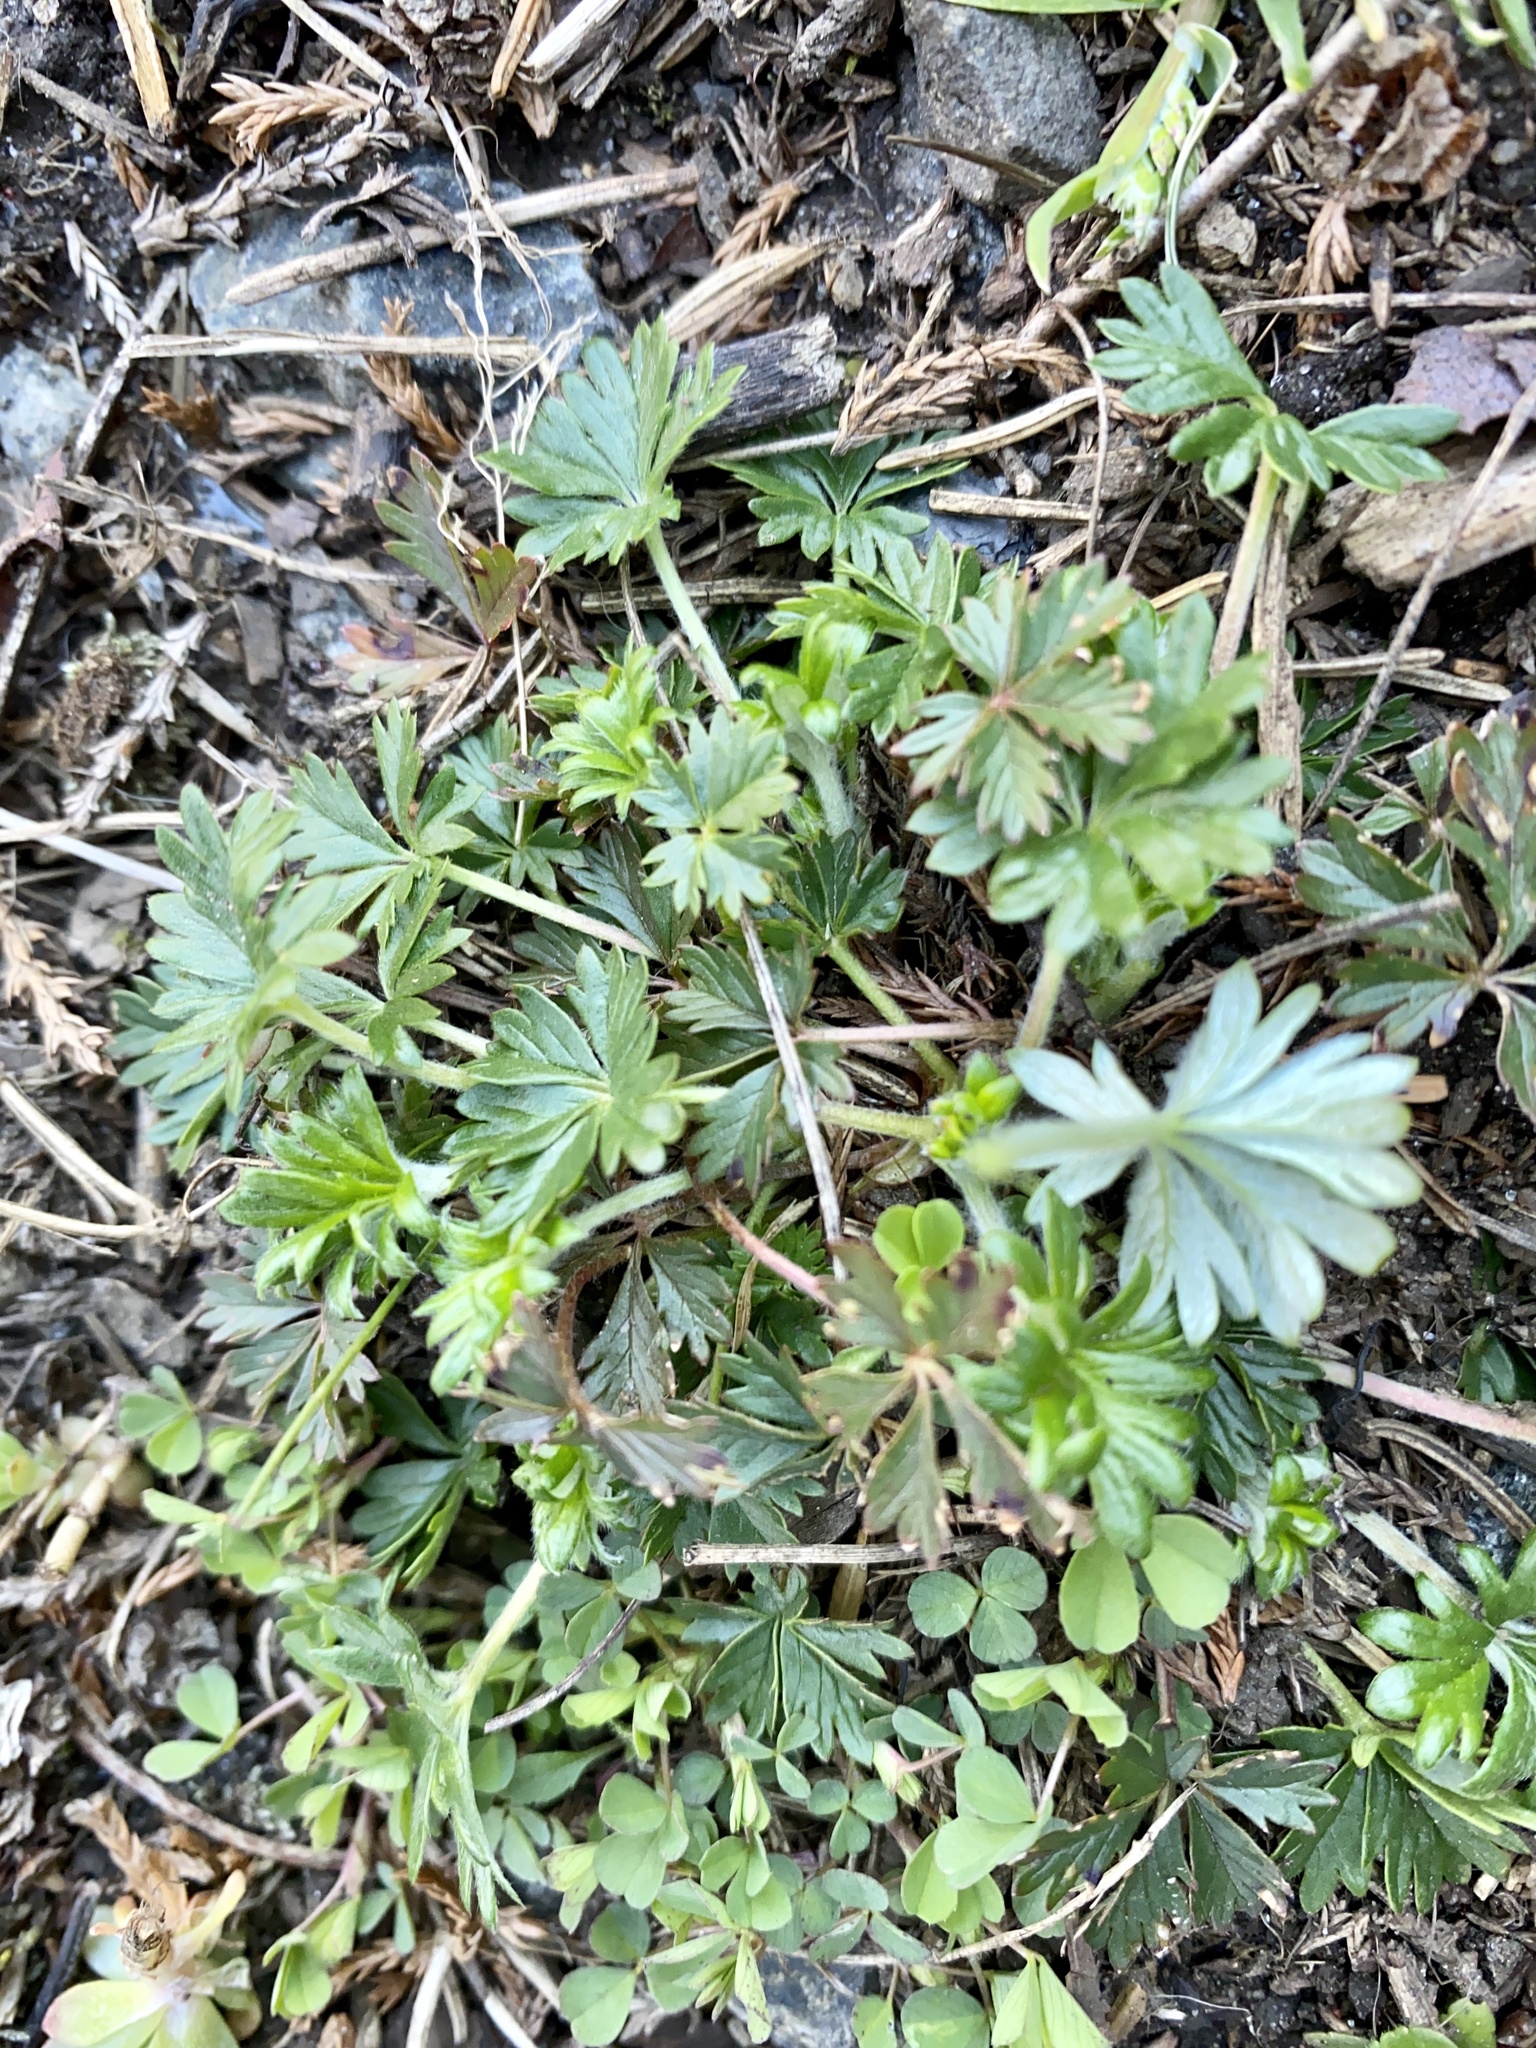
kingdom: Plantae
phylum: Tracheophyta
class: Magnoliopsida
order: Rosales
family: Rosaceae
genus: Potentilla
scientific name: Potentilla argentea
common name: Hoary cinquefoil
